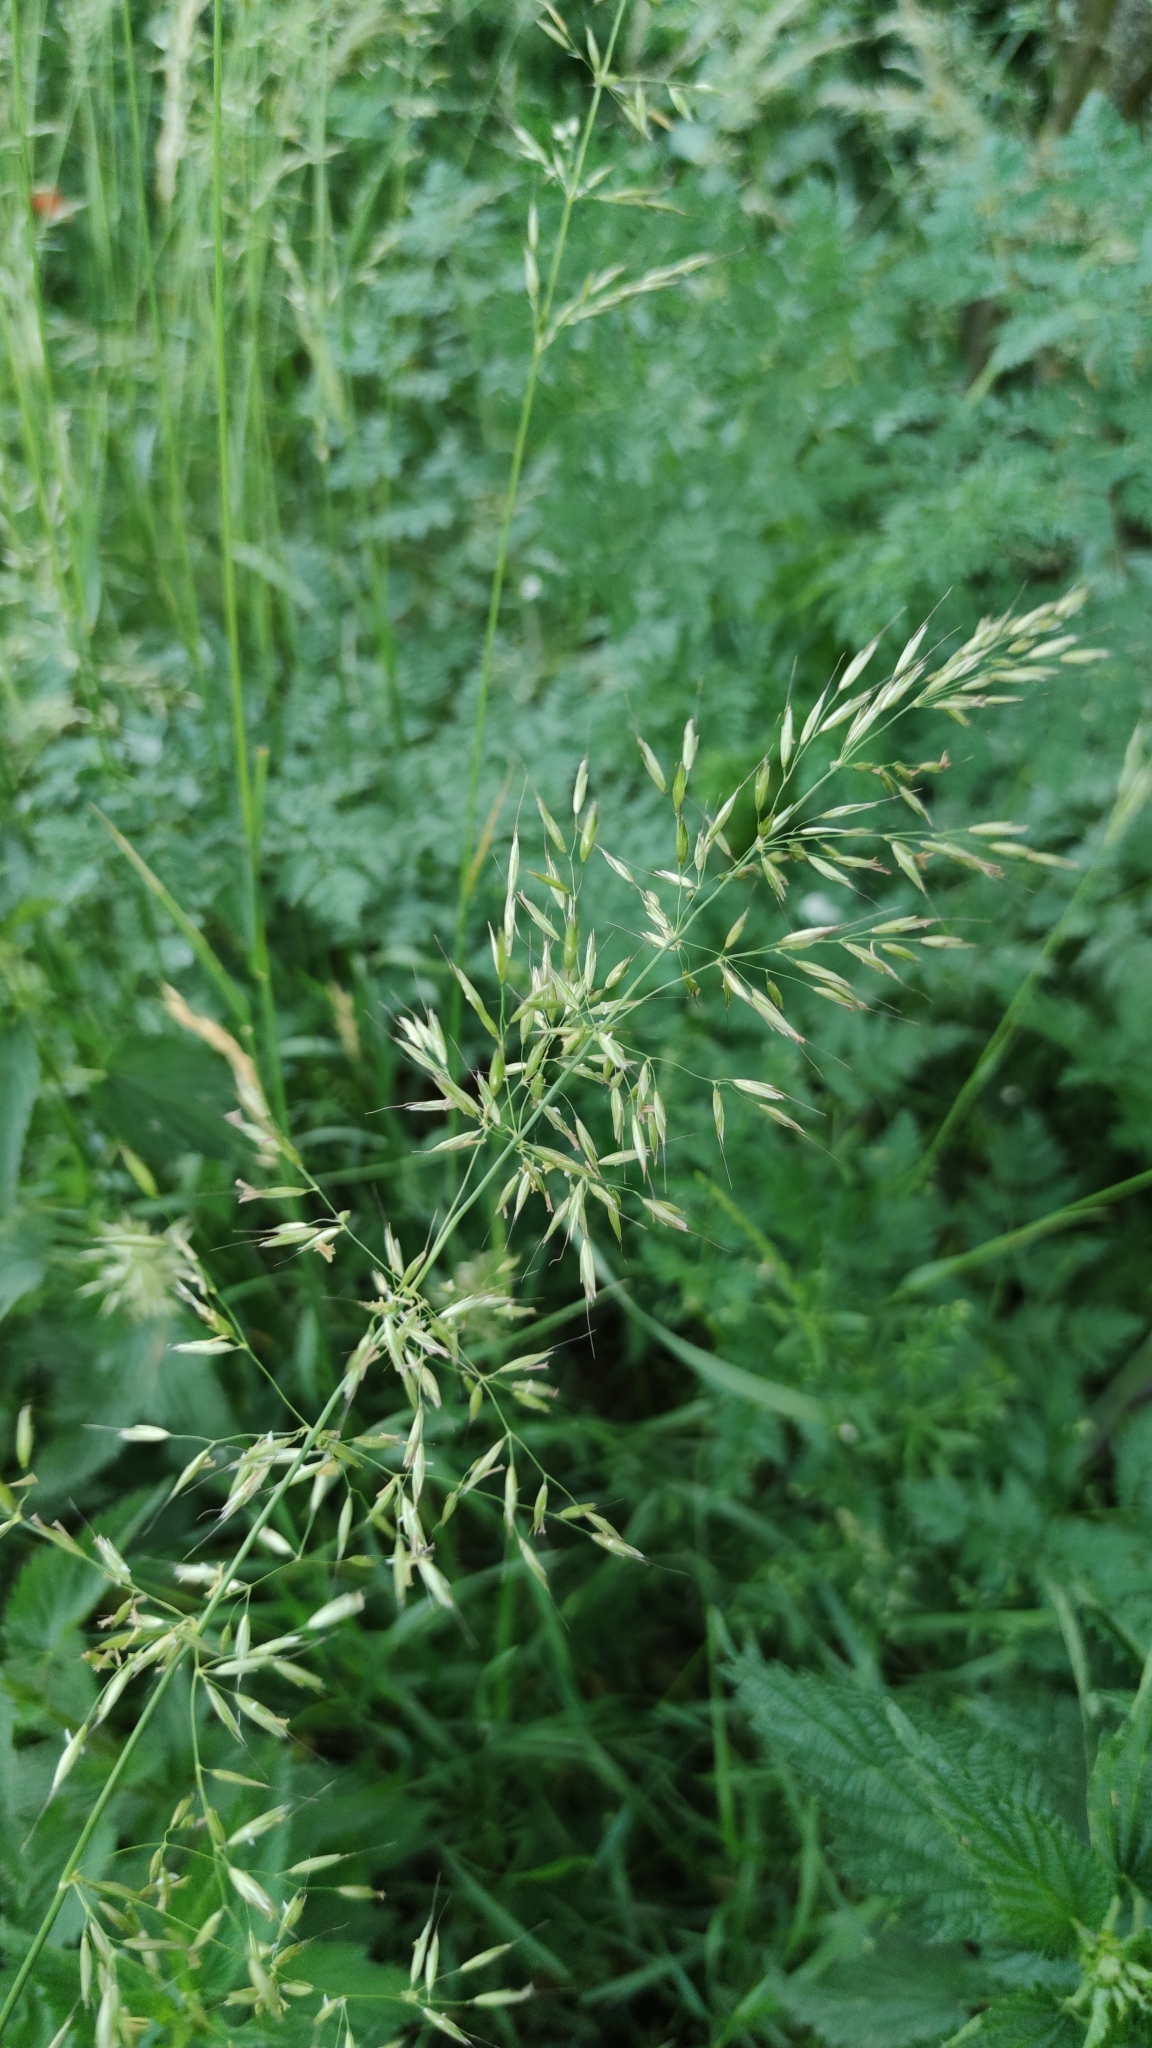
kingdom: Plantae
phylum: Tracheophyta
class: Liliopsida
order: Poales
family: Poaceae
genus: Arrhenatherum
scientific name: Arrhenatherum elatius
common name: Tall oatgrass
